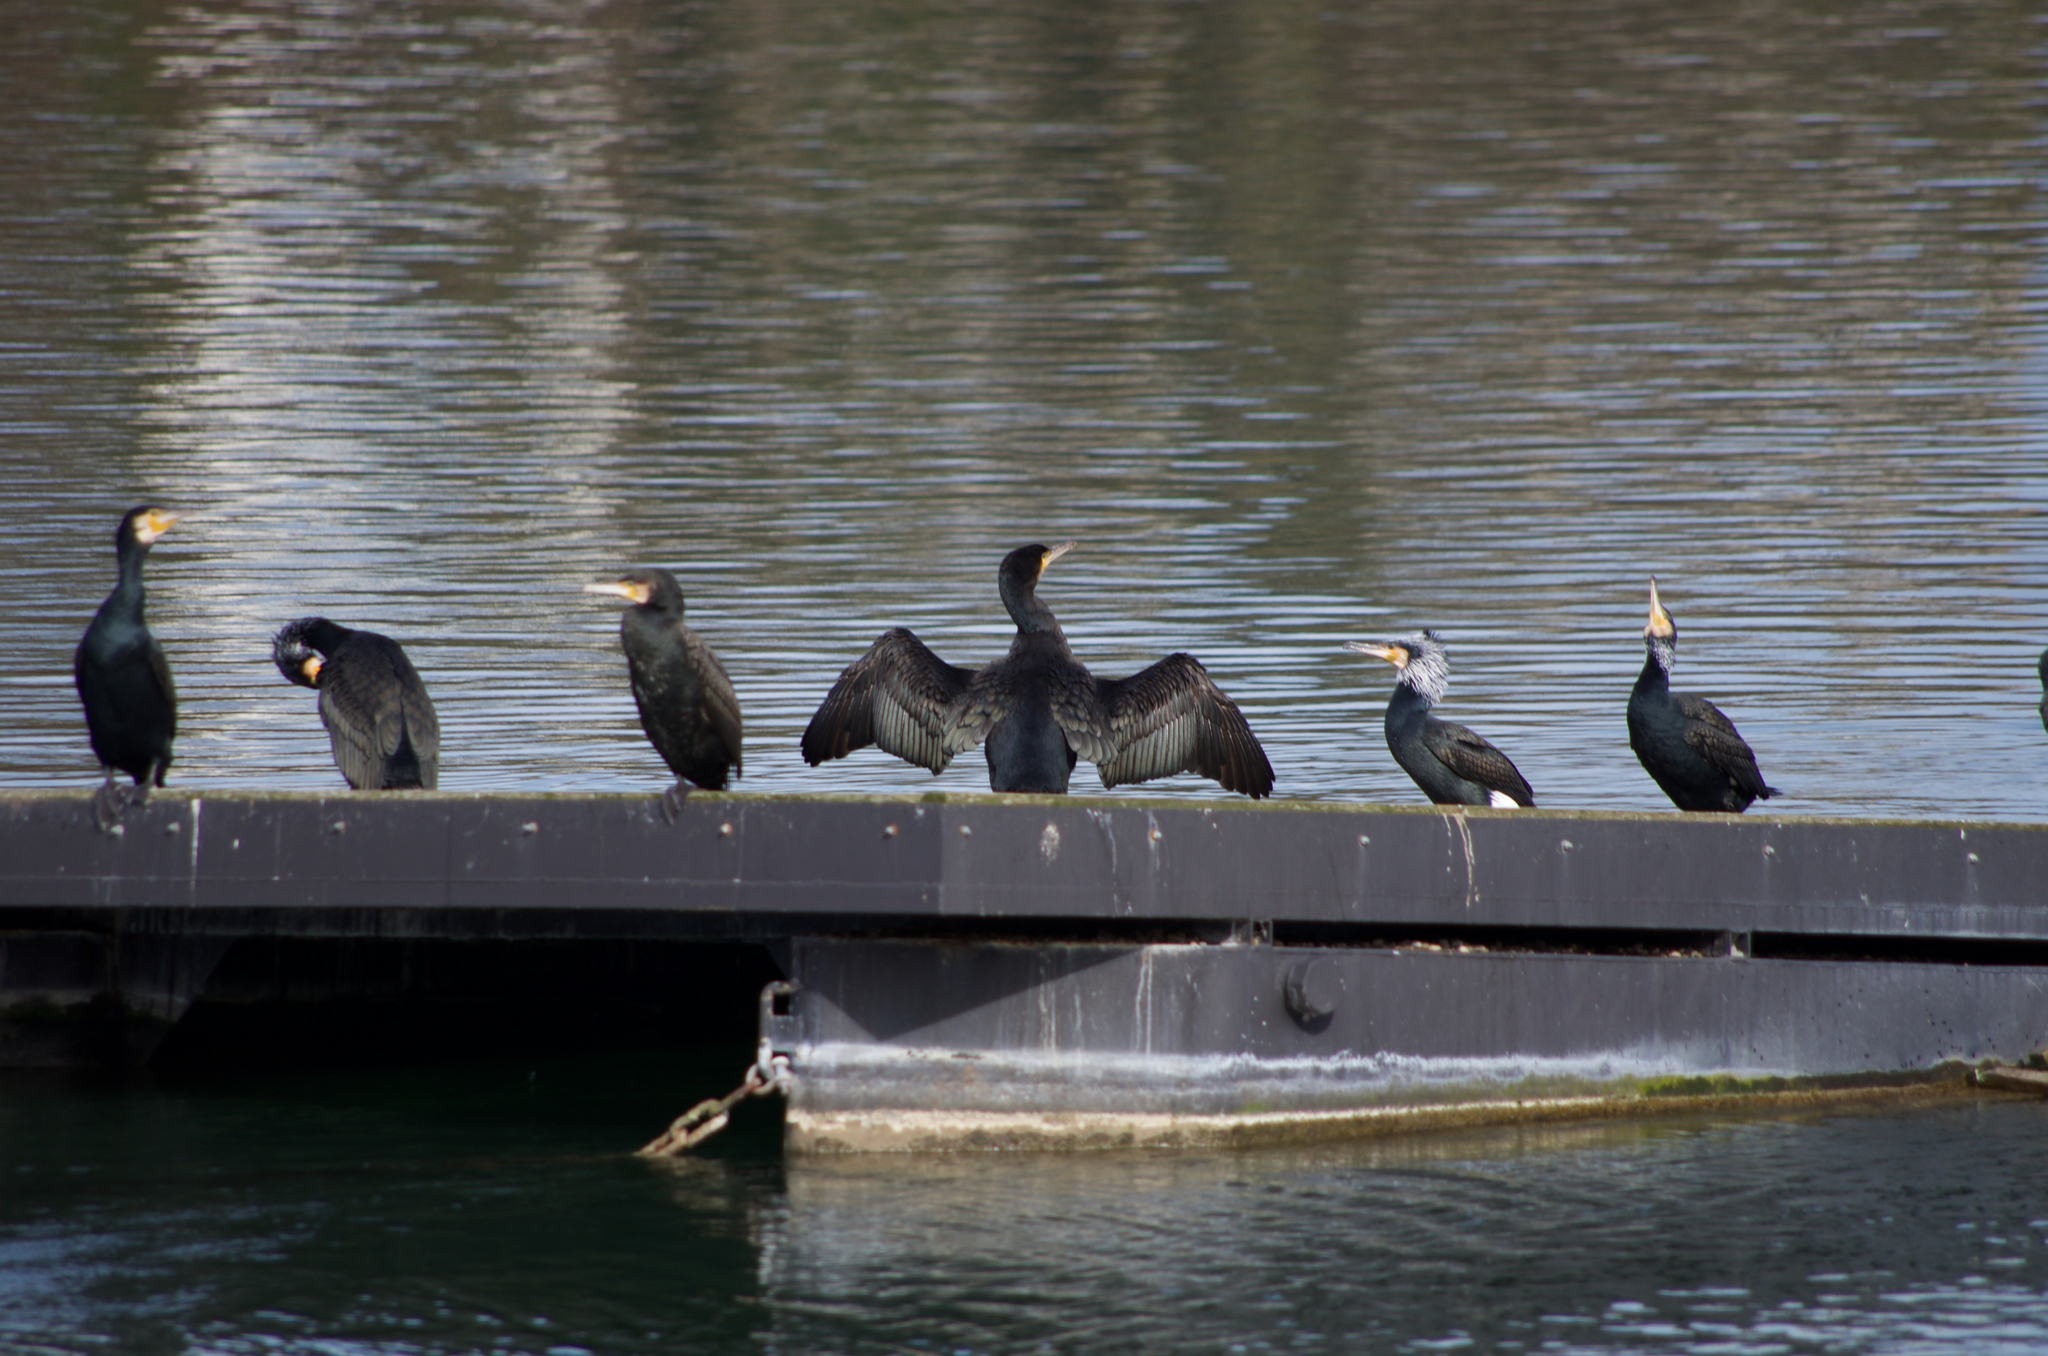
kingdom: Animalia
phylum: Chordata
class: Aves
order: Suliformes
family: Phalacrocoracidae
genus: Phalacrocorax
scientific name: Phalacrocorax carbo
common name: Great cormorant
